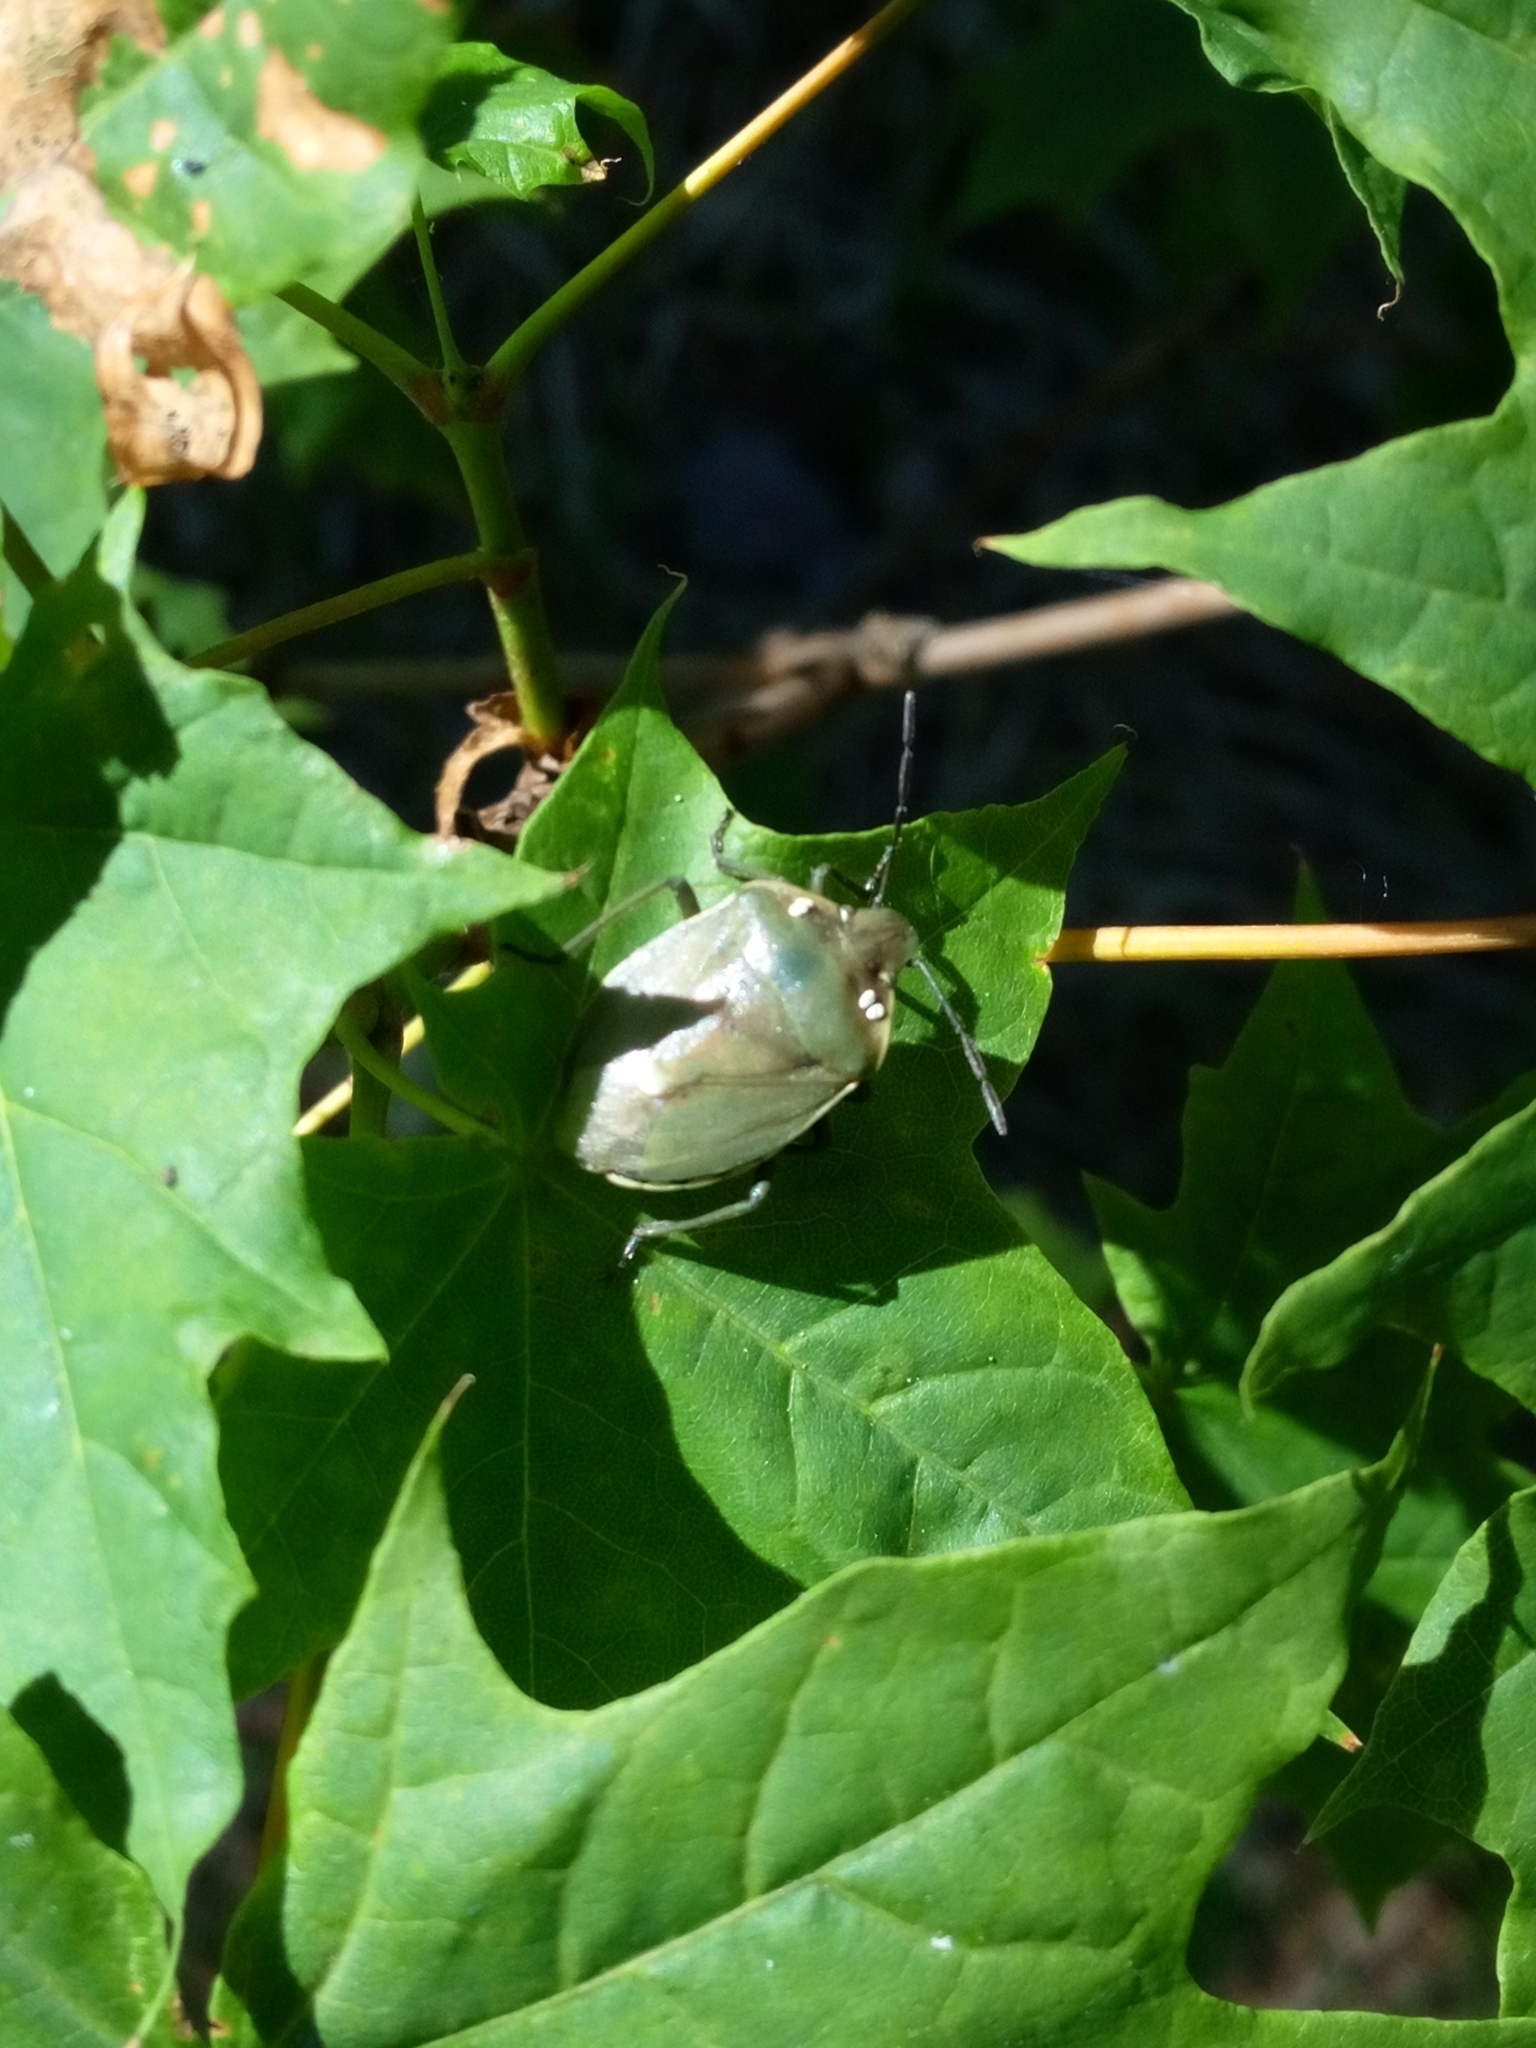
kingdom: Animalia
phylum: Arthropoda
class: Insecta
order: Hemiptera
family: Pentatomidae
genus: Chlorochroa
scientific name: Chlorochroa juniperina
